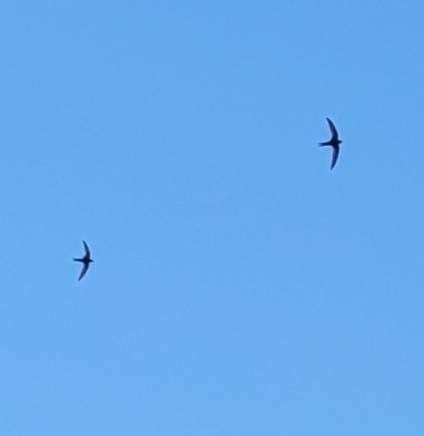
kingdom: Animalia
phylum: Chordata
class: Aves
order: Apodiformes
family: Apodidae
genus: Apus
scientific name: Apus apus
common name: Common swift
